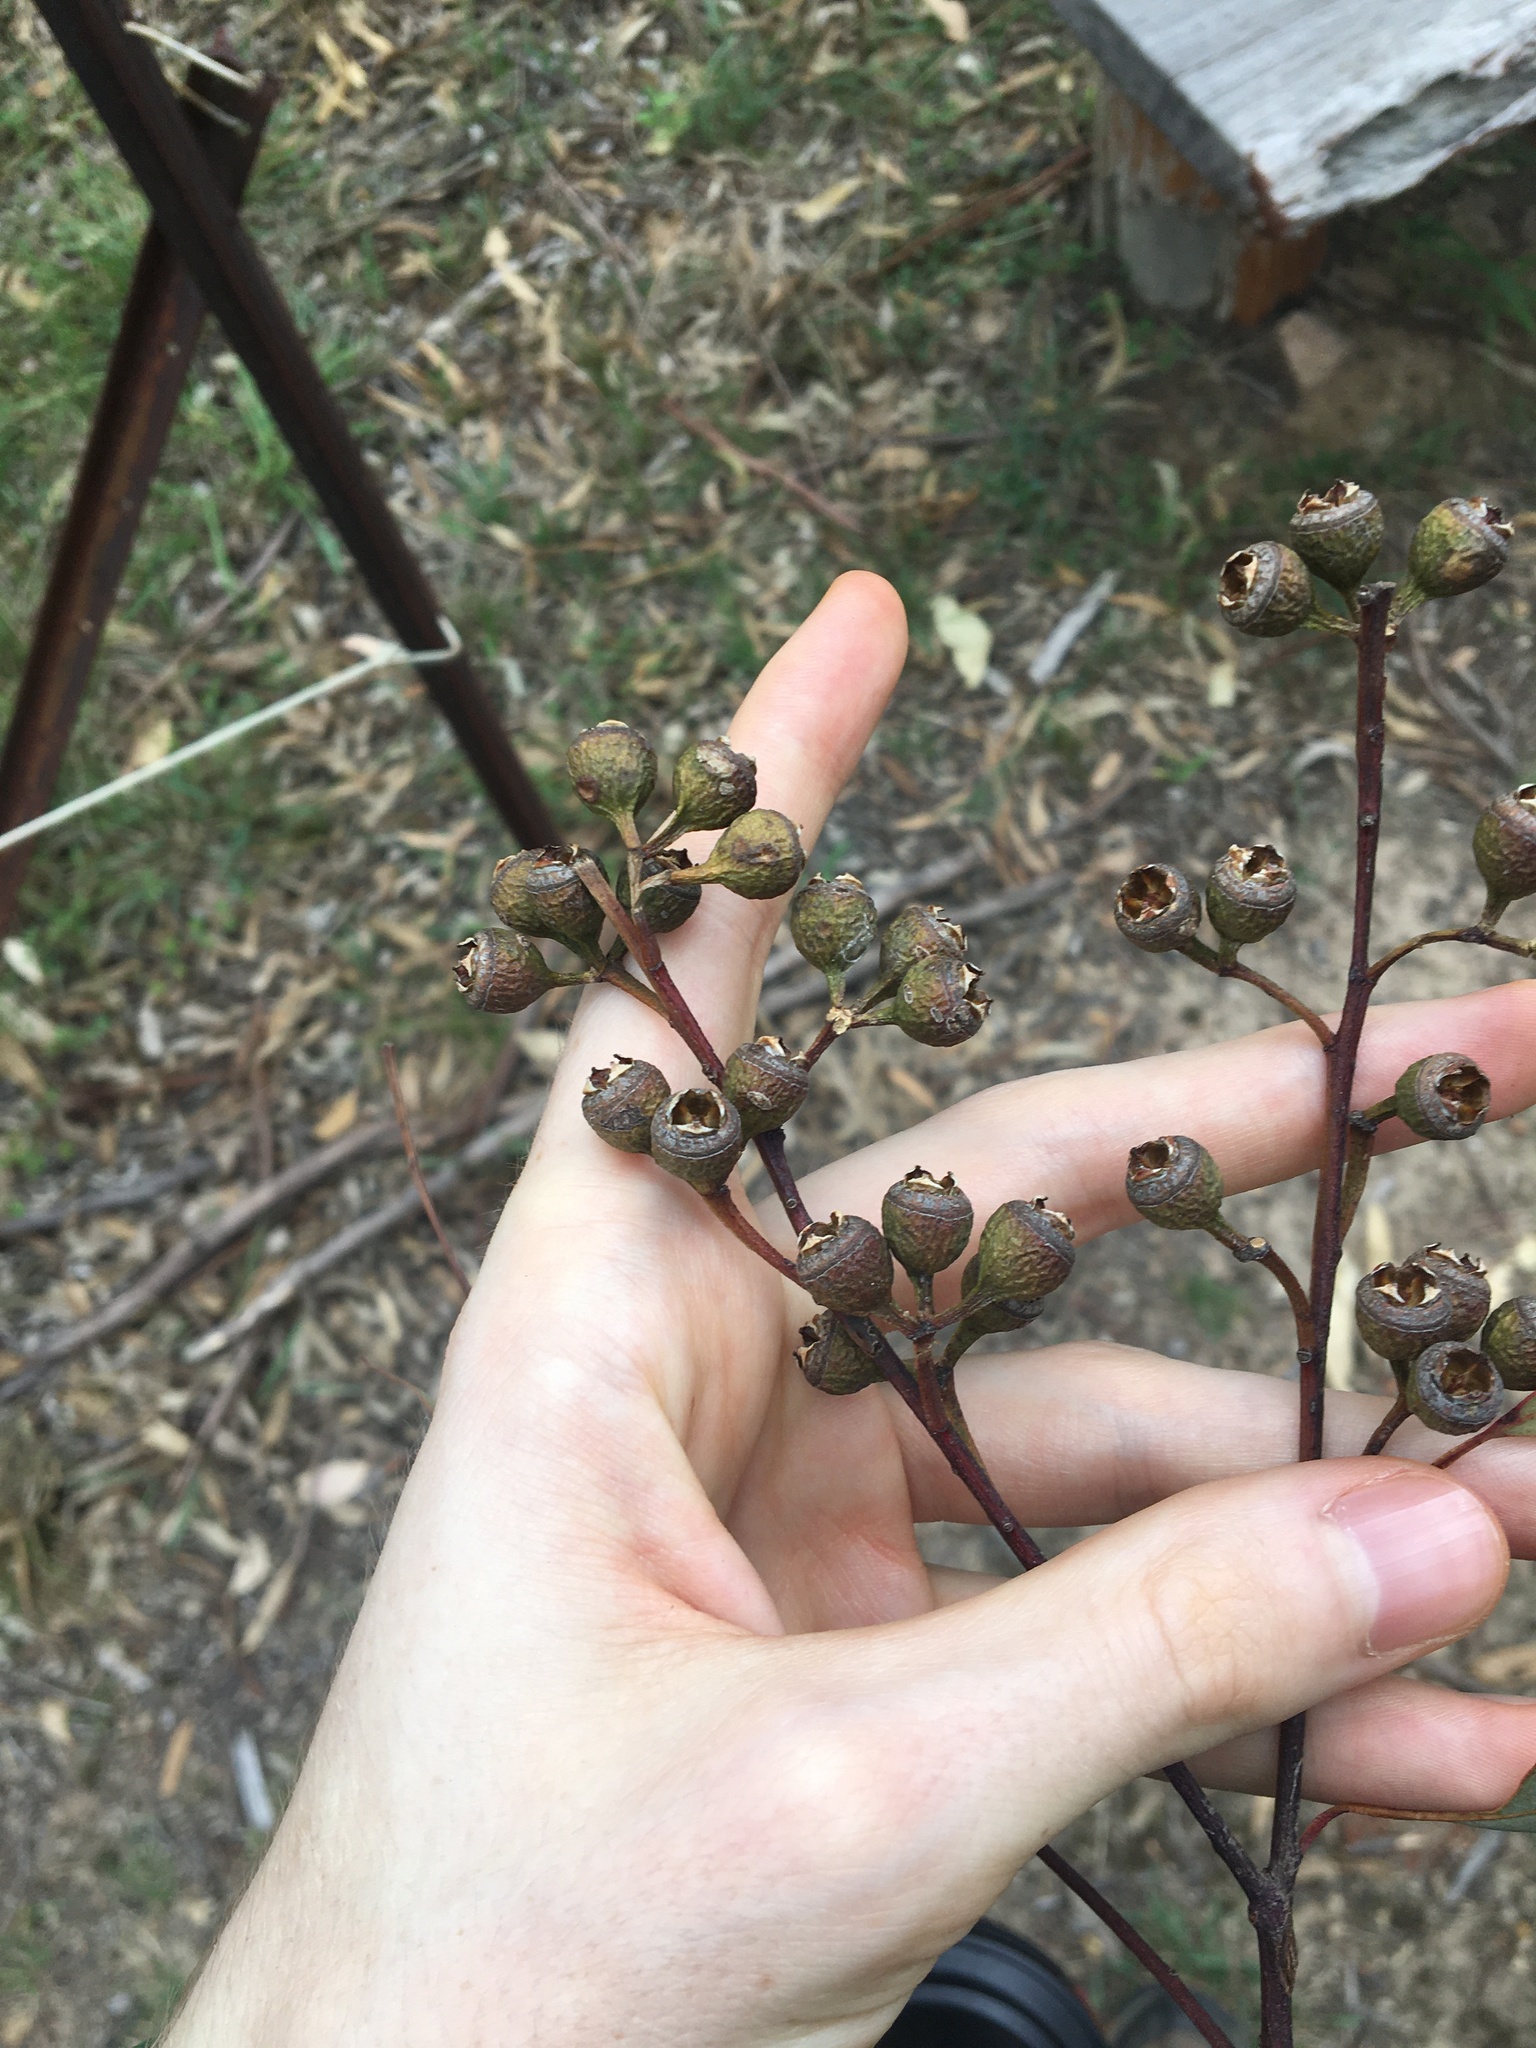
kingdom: Plantae
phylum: Tracheophyta
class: Magnoliopsida
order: Myrtales
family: Myrtaceae
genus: Eucalyptus
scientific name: Eucalyptus punctata
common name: Gray gum
